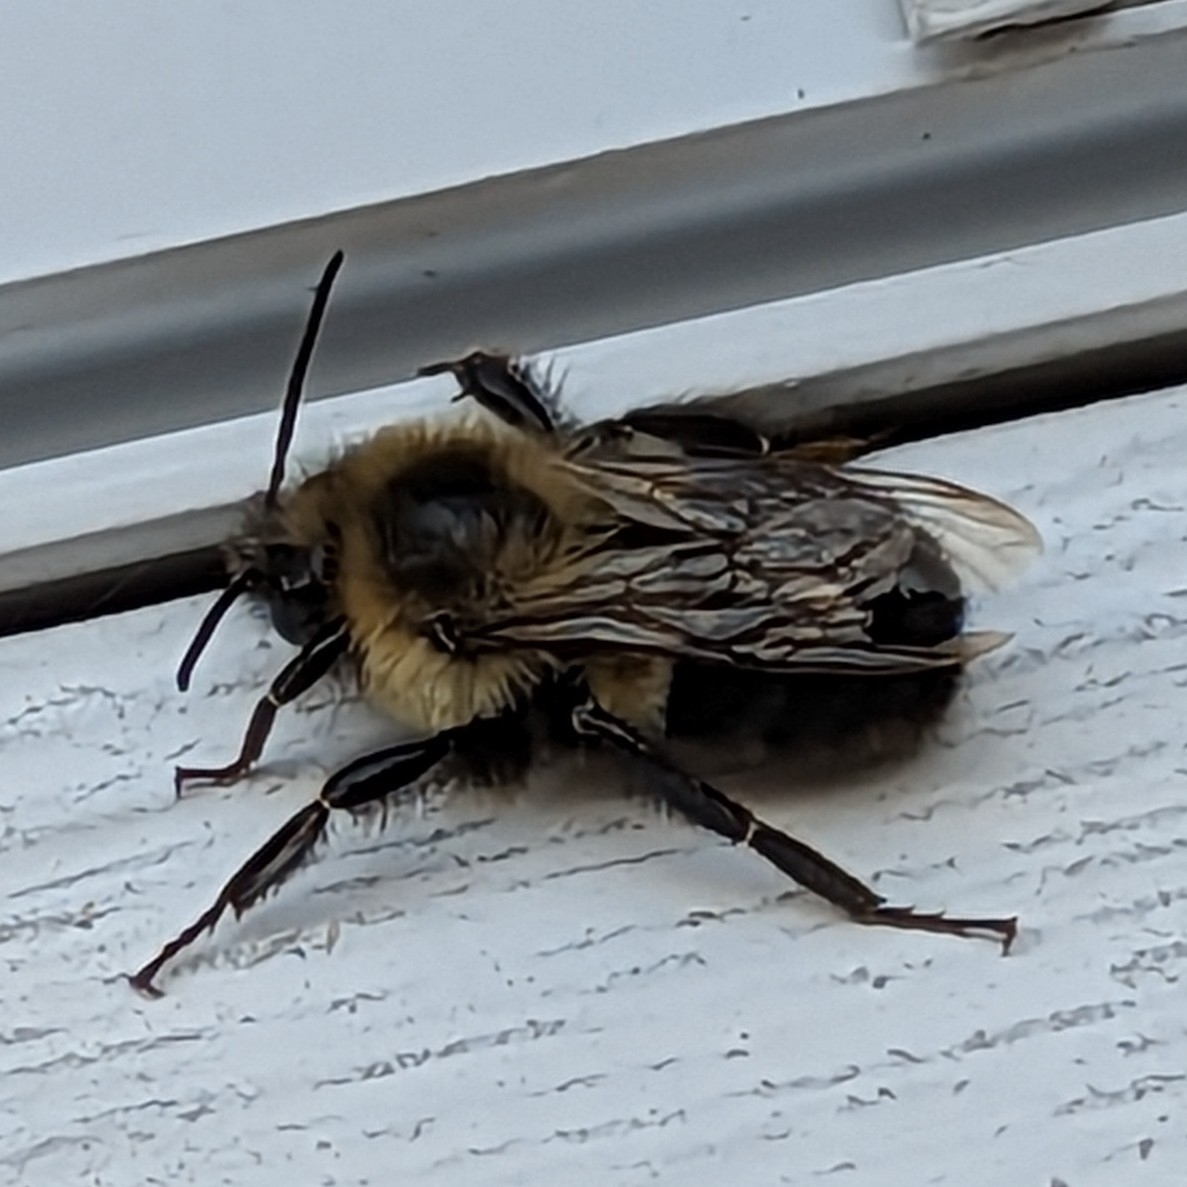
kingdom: Animalia
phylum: Arthropoda
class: Insecta
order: Hymenoptera
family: Apidae
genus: Bombus
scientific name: Bombus impatiens
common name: Common eastern bumble bee
